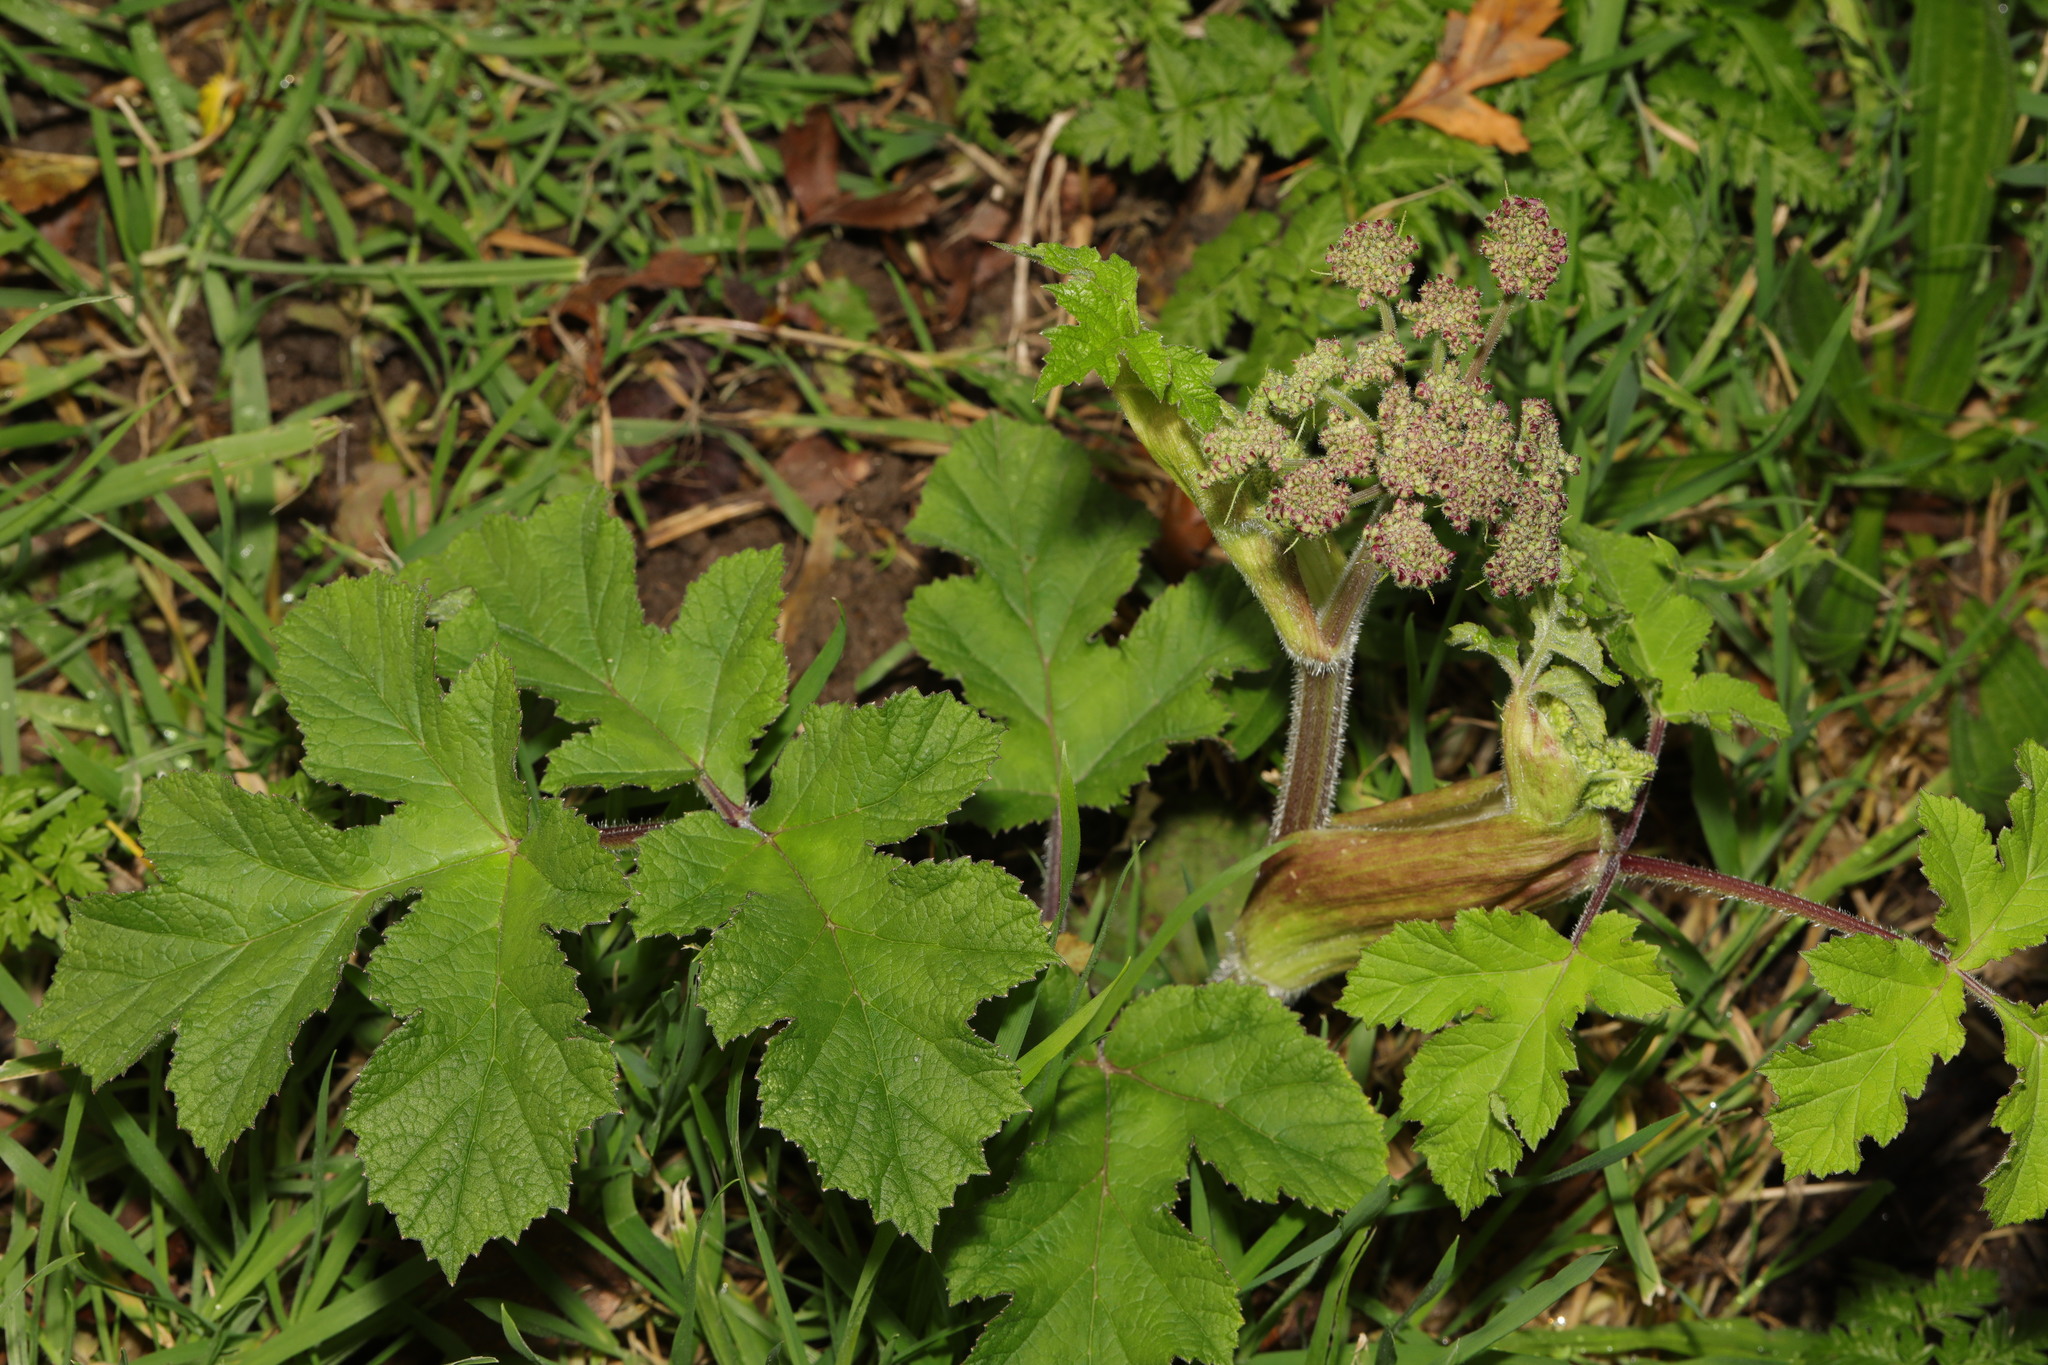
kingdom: Plantae
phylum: Tracheophyta
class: Magnoliopsida
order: Apiales
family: Apiaceae
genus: Heracleum
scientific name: Heracleum sphondylium
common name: Hogweed
